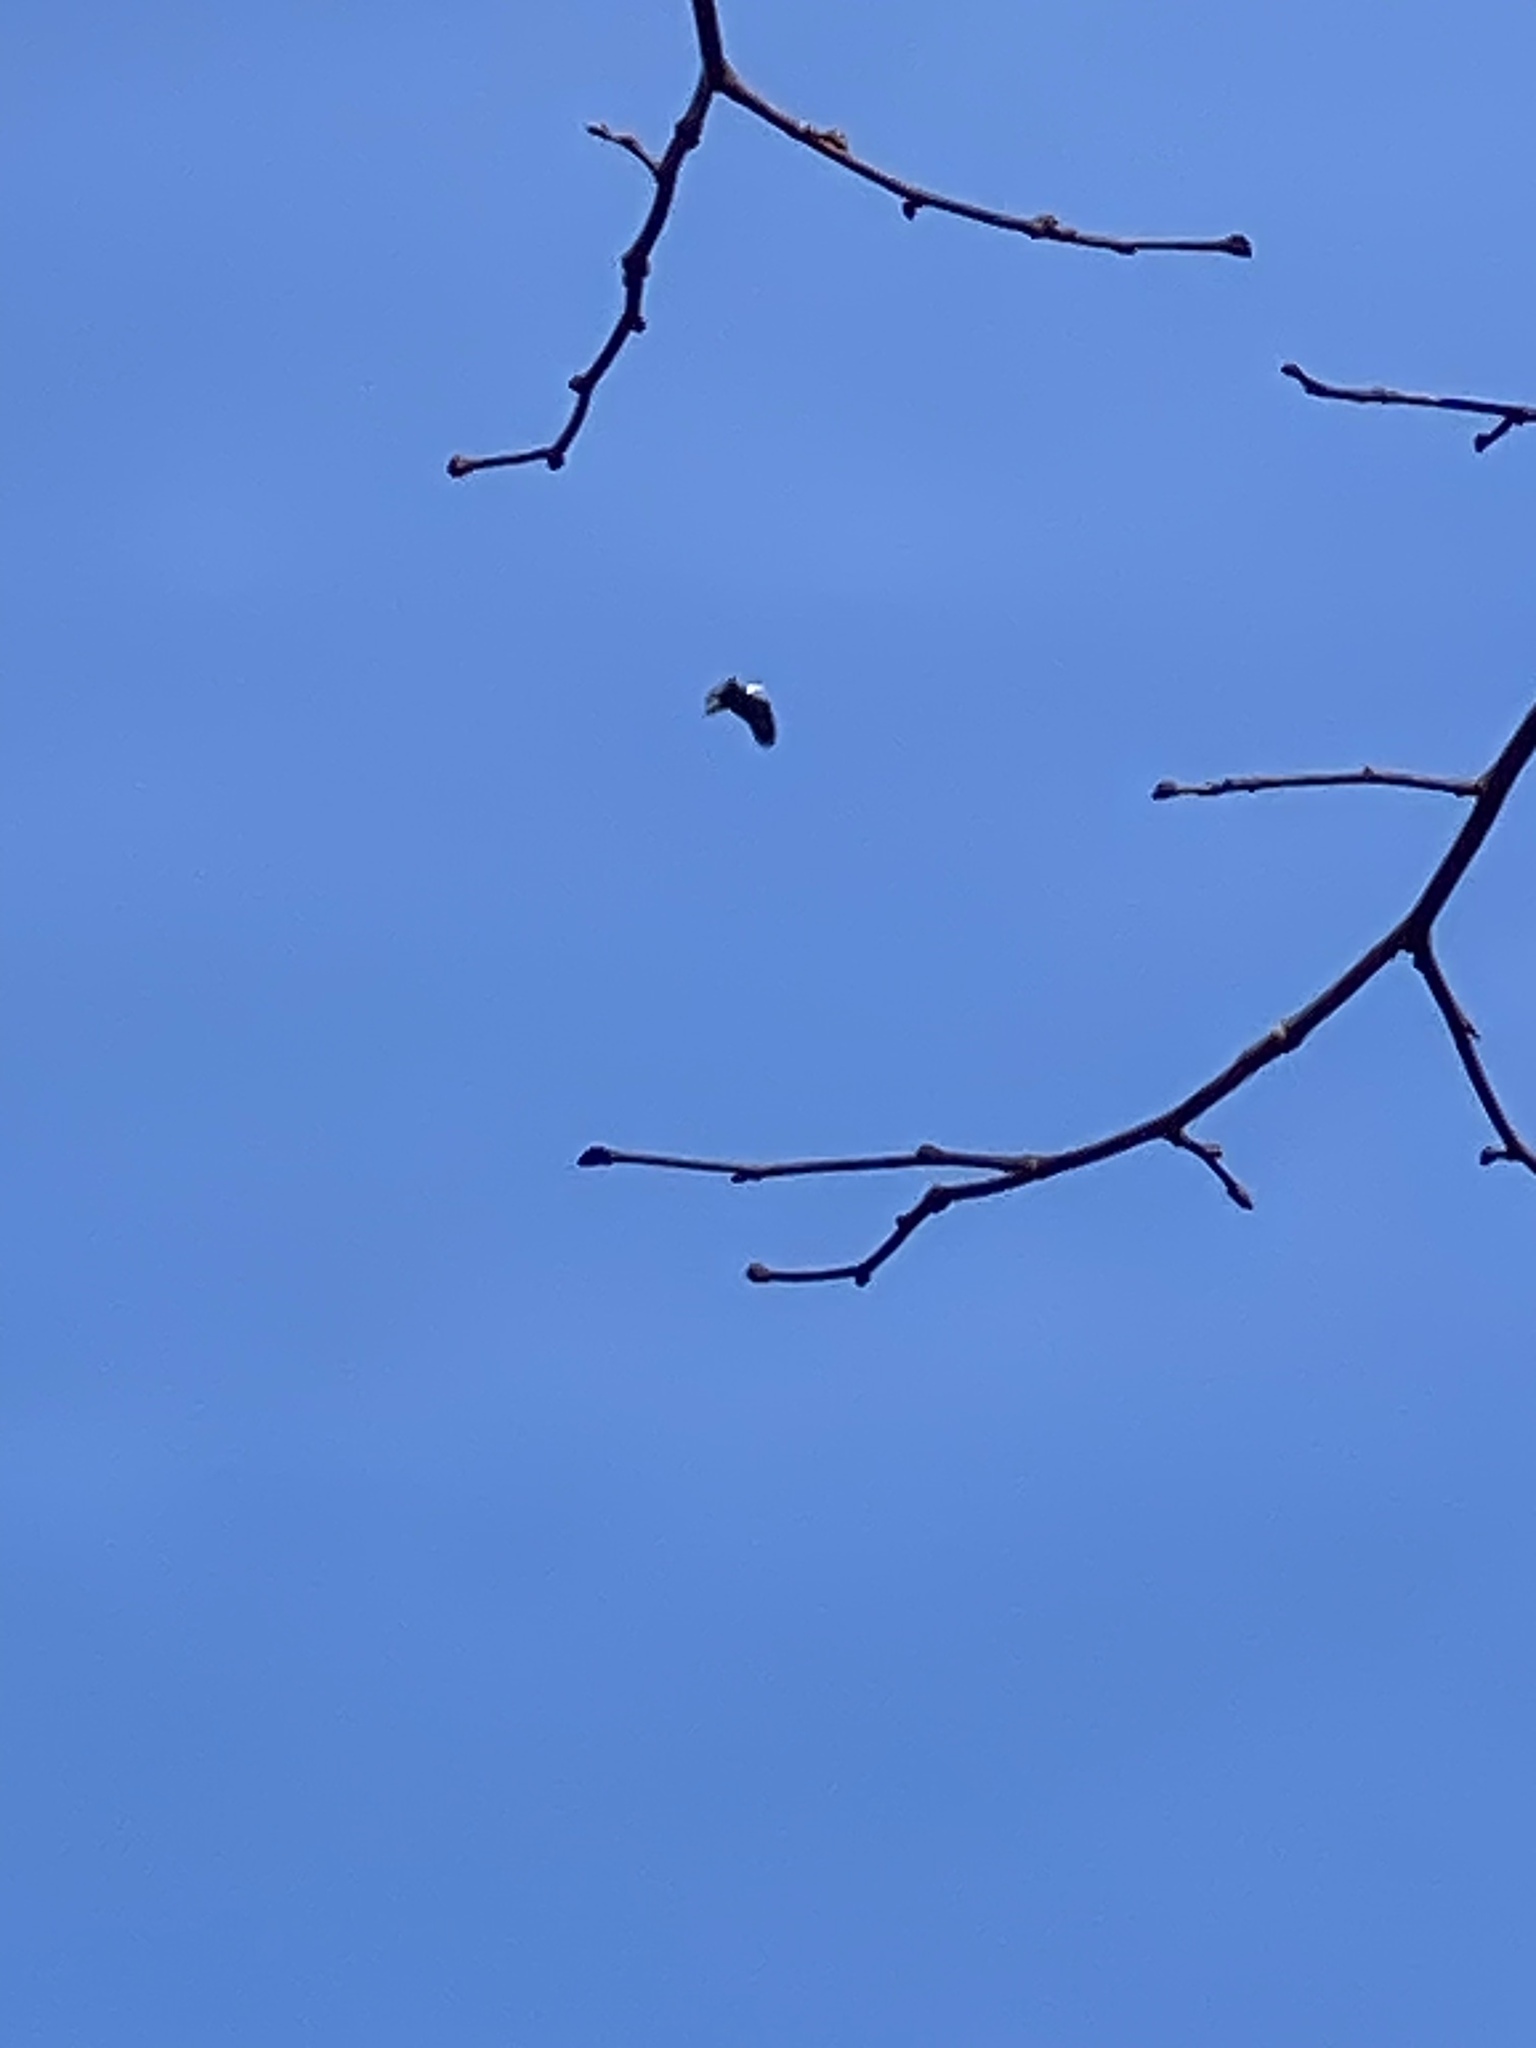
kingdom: Animalia
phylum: Chordata
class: Aves
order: Accipitriformes
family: Accipitridae
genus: Haliaeetus
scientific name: Haliaeetus leucocephalus
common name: Bald eagle
